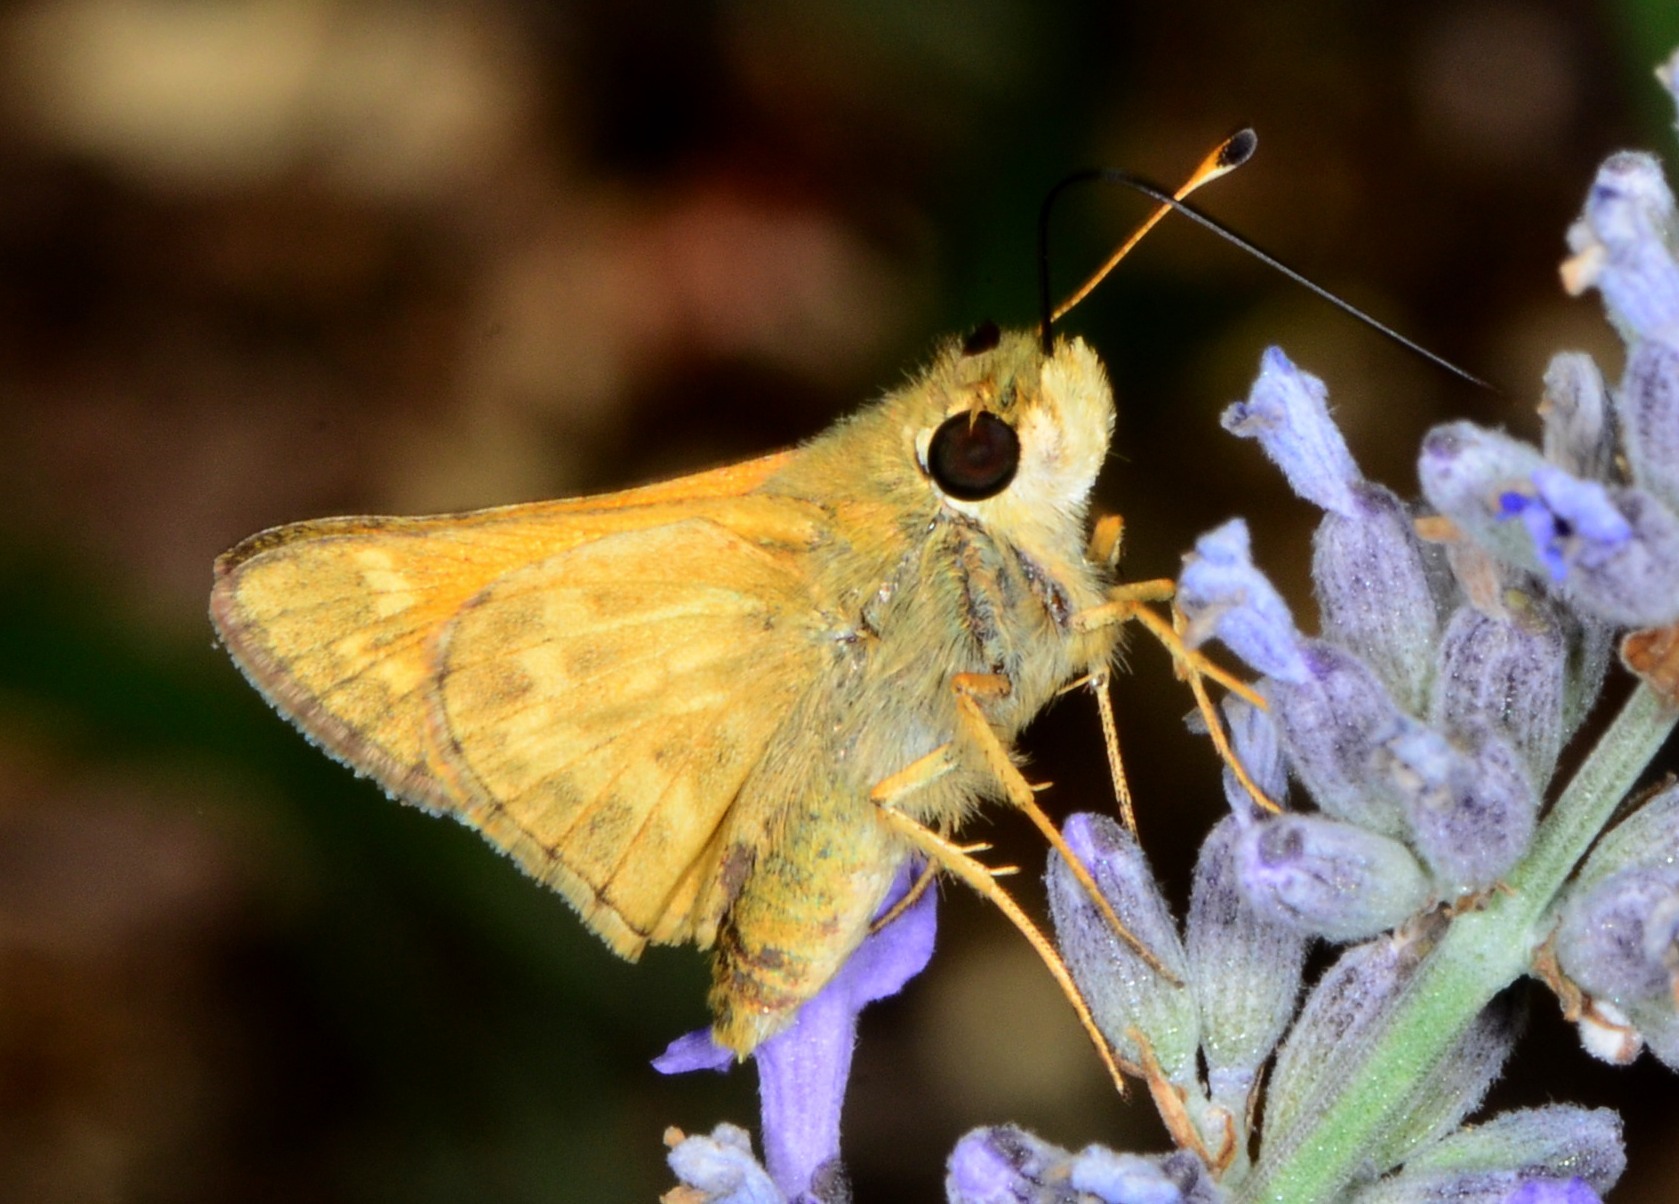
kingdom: Animalia
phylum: Arthropoda
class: Insecta
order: Lepidoptera
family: Hesperiidae
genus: Atalopedes
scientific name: Atalopedes campestris
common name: Sachem
